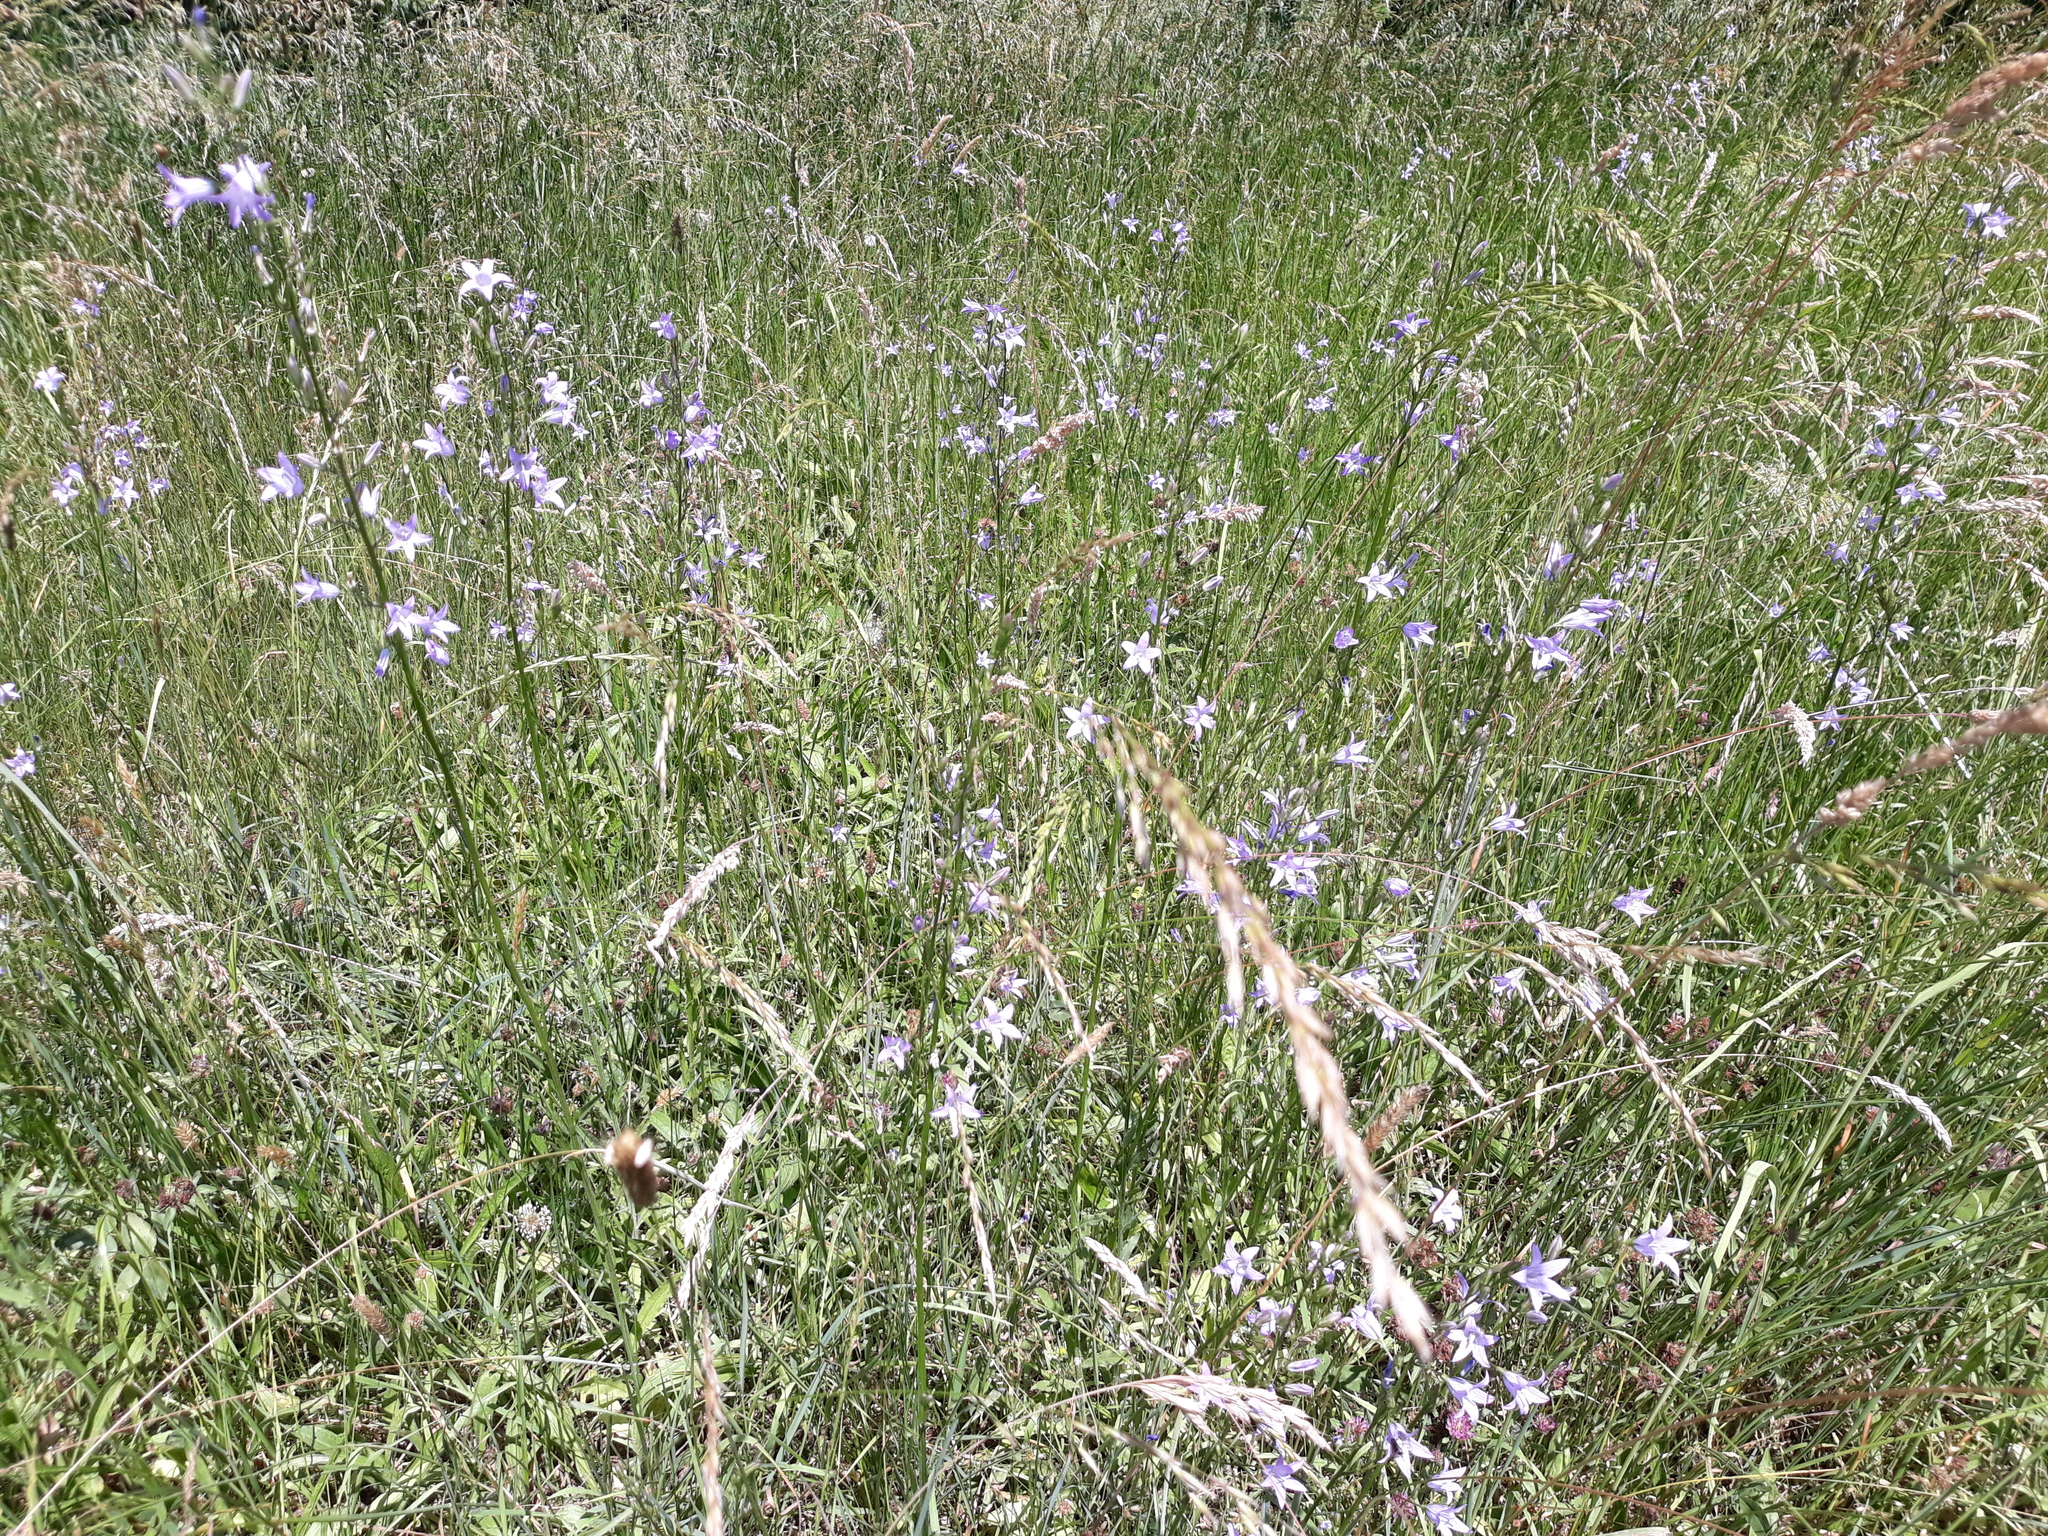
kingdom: Plantae
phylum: Tracheophyta
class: Magnoliopsida
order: Asterales
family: Campanulaceae
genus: Campanula
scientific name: Campanula rapunculus
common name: Rampion bellflower
